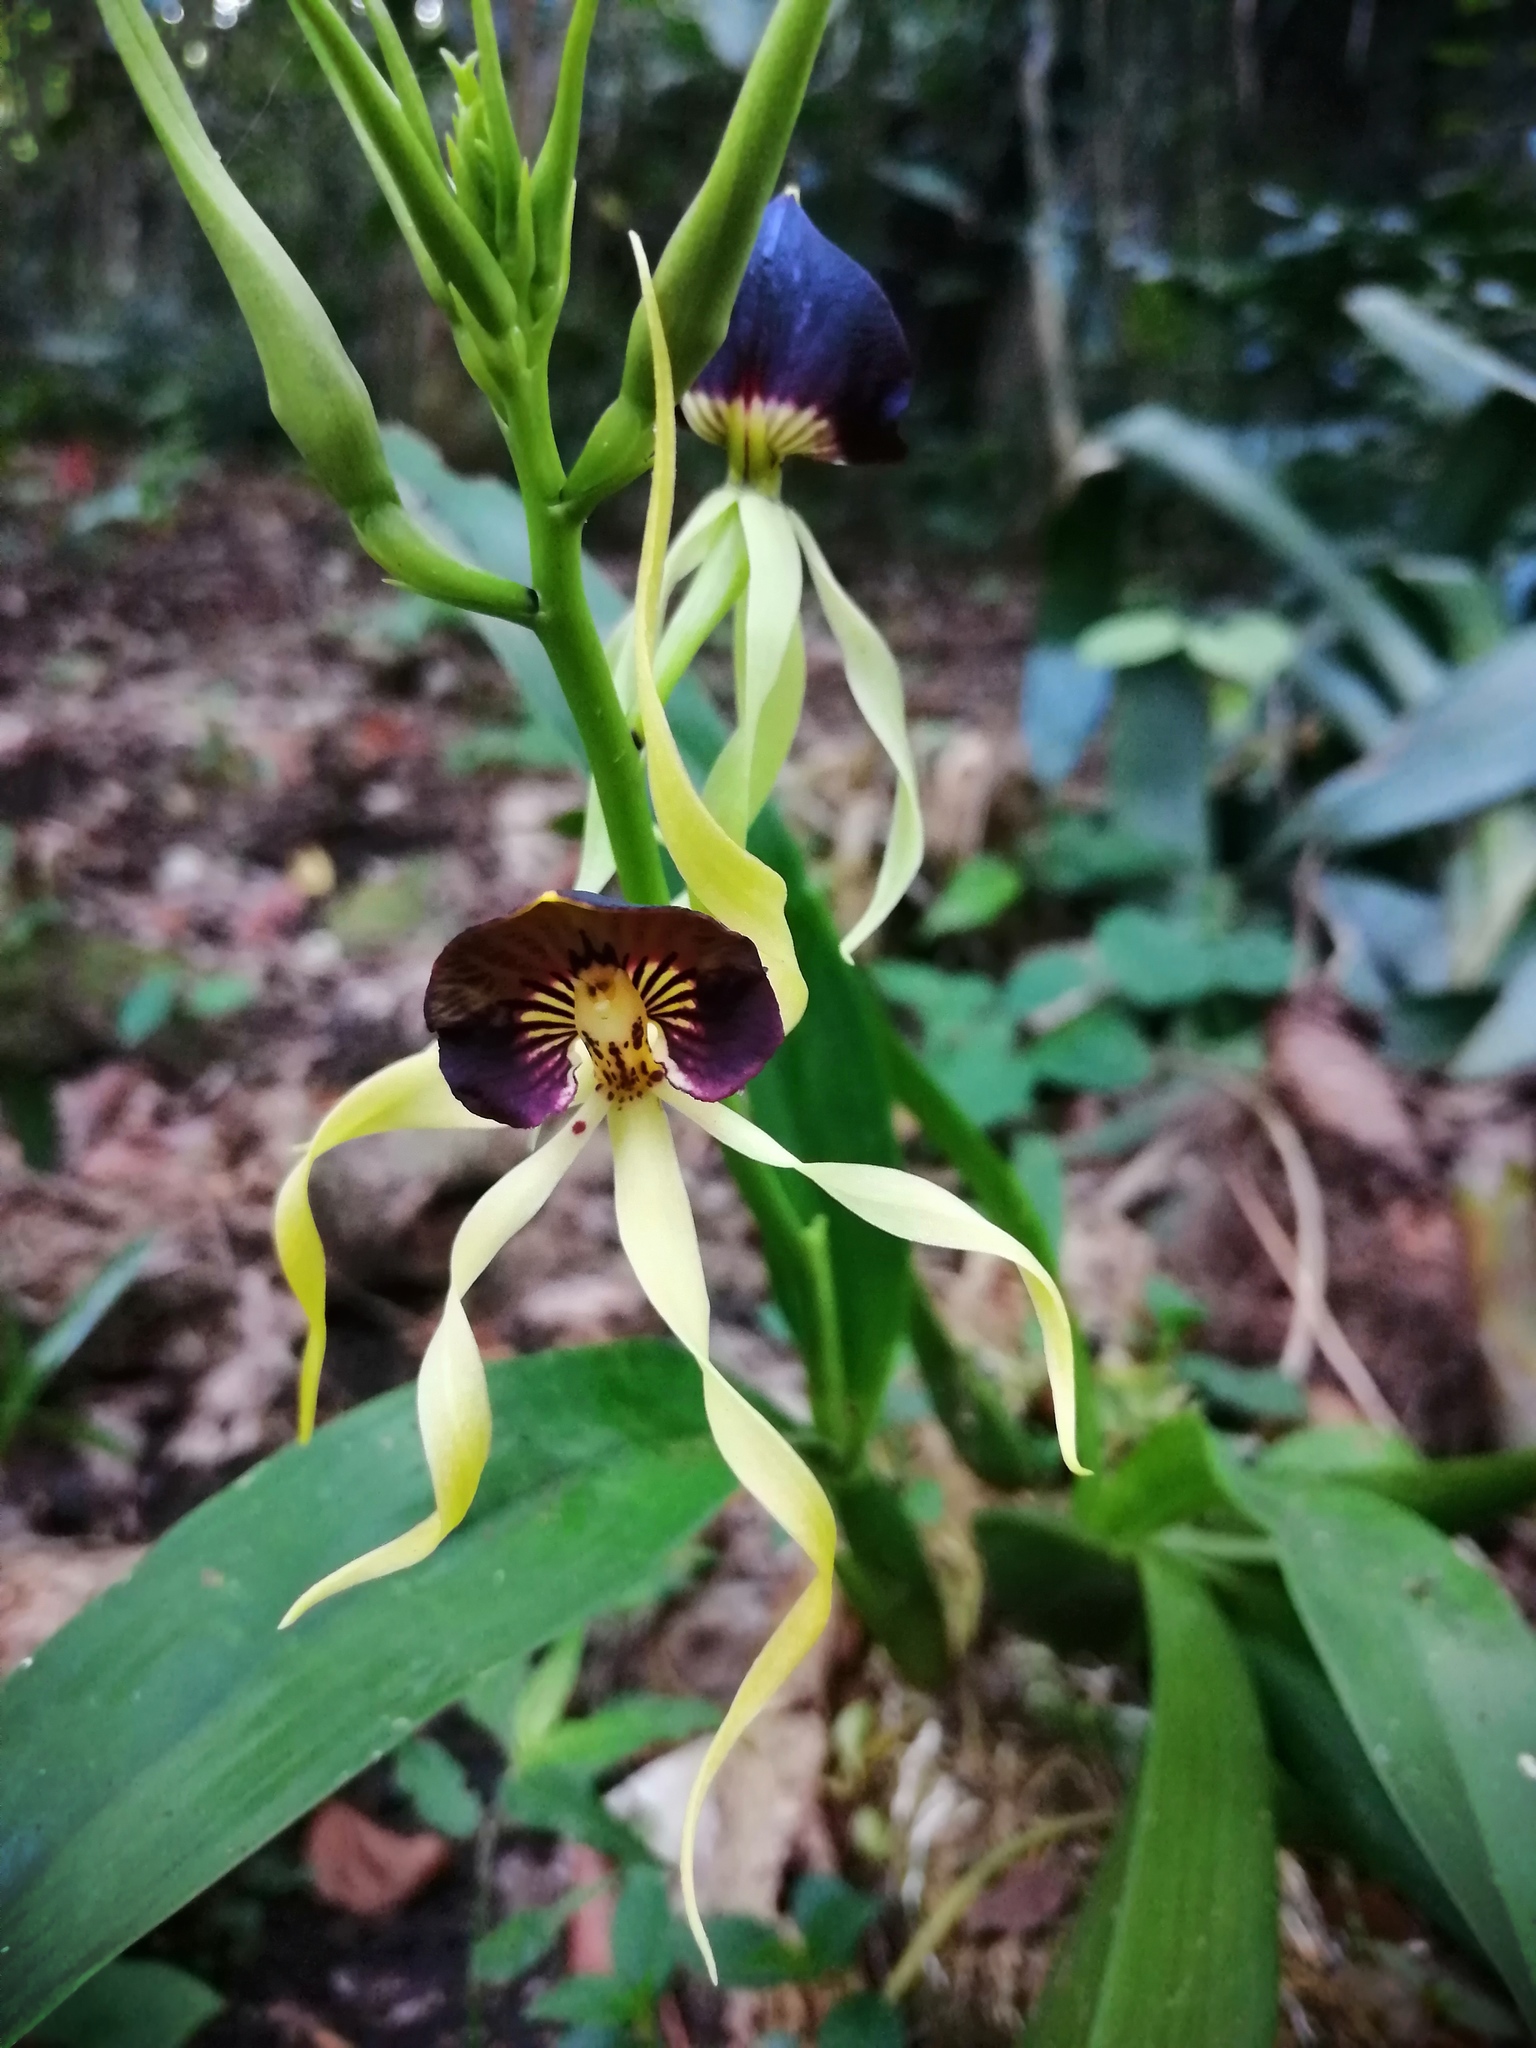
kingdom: Plantae
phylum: Tracheophyta
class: Liliopsida
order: Asparagales
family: Orchidaceae
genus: Prosthechea
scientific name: Prosthechea cochleata
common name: Clamshell orchid
